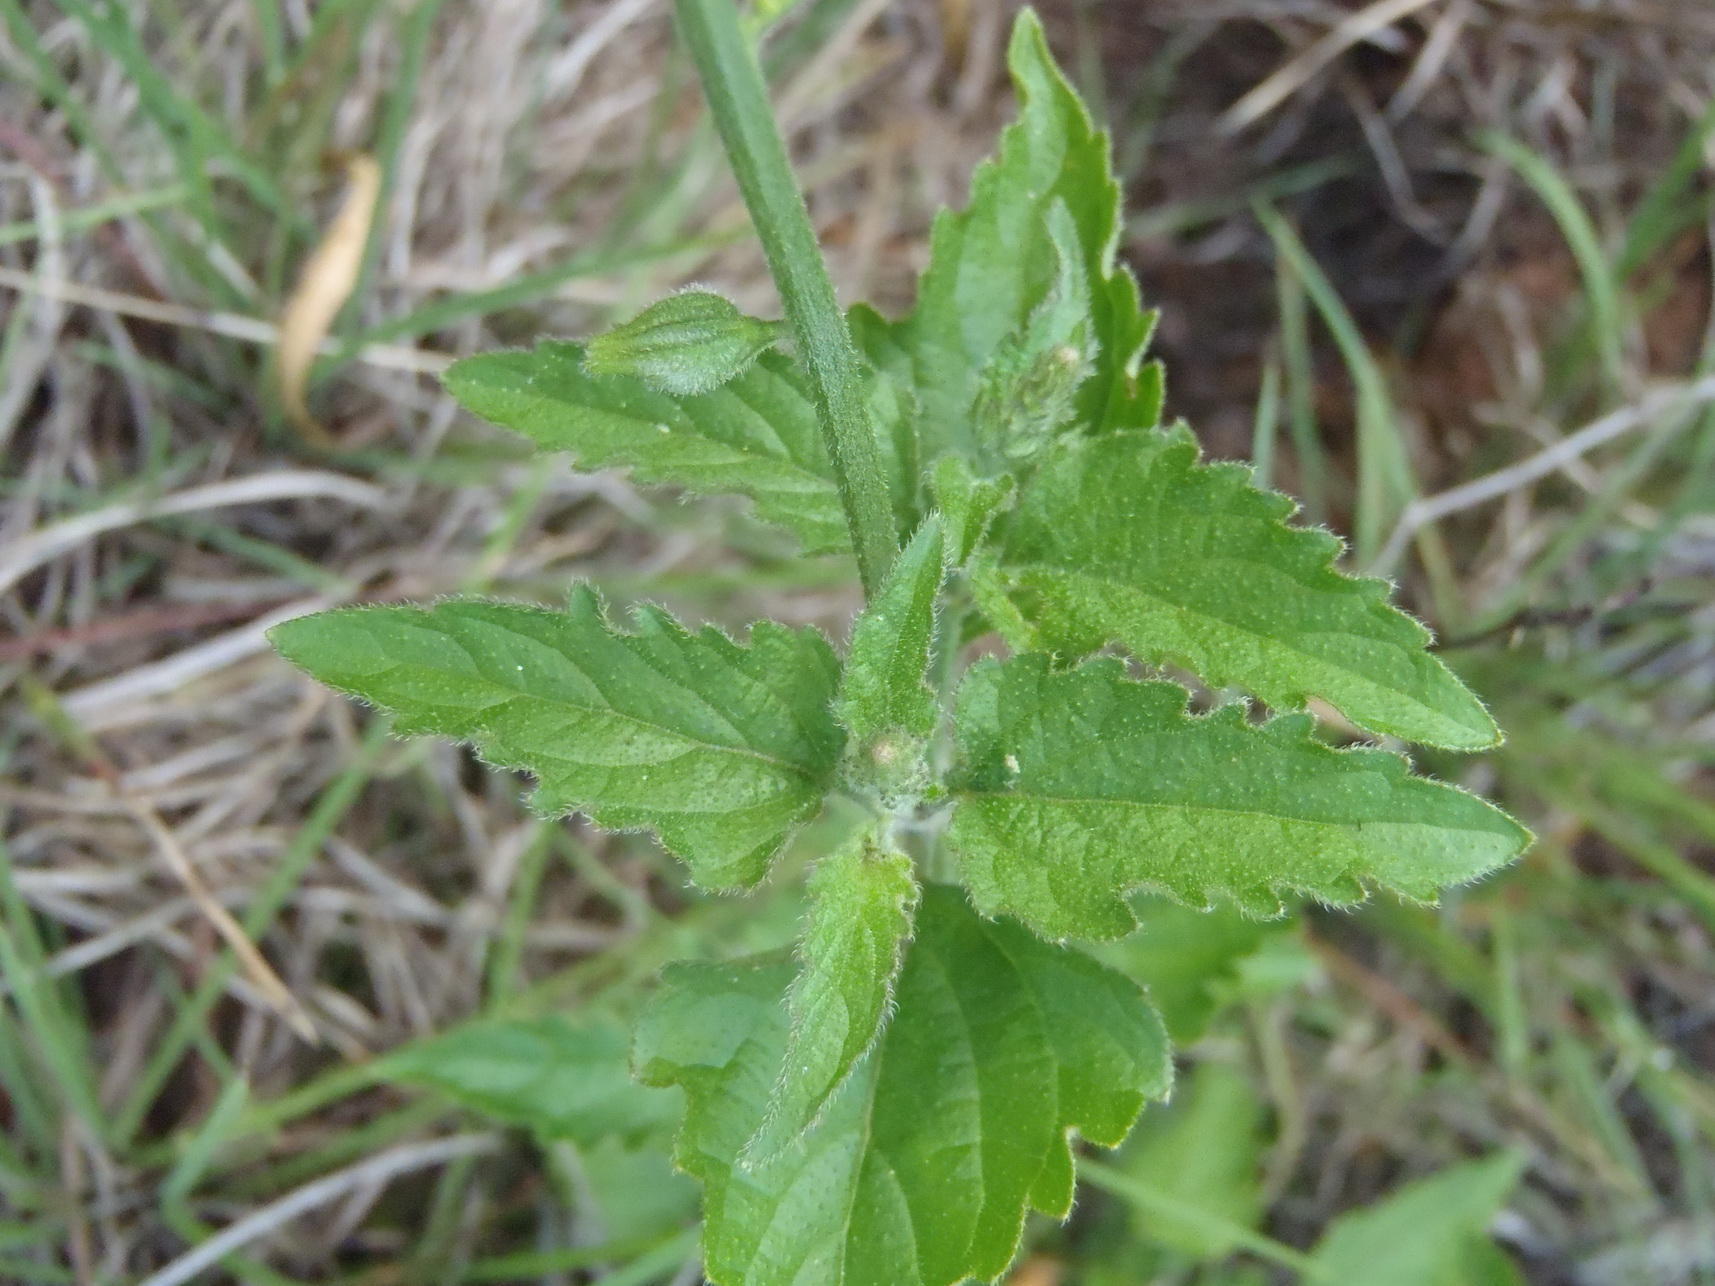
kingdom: Plantae
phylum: Tracheophyta
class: Magnoliopsida
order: Lamiales
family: Verbenaceae
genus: Priva
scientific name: Priva adhaerens
